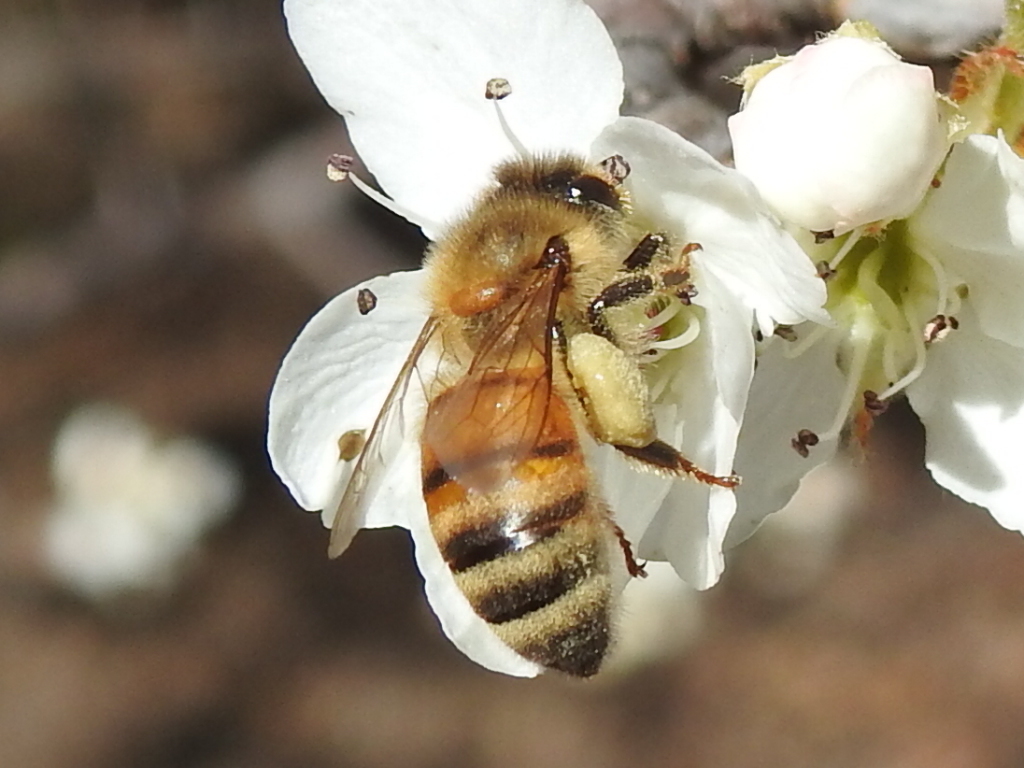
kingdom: Animalia
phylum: Arthropoda
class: Insecta
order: Hymenoptera
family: Apidae
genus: Apis
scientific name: Apis mellifera
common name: Honey bee
